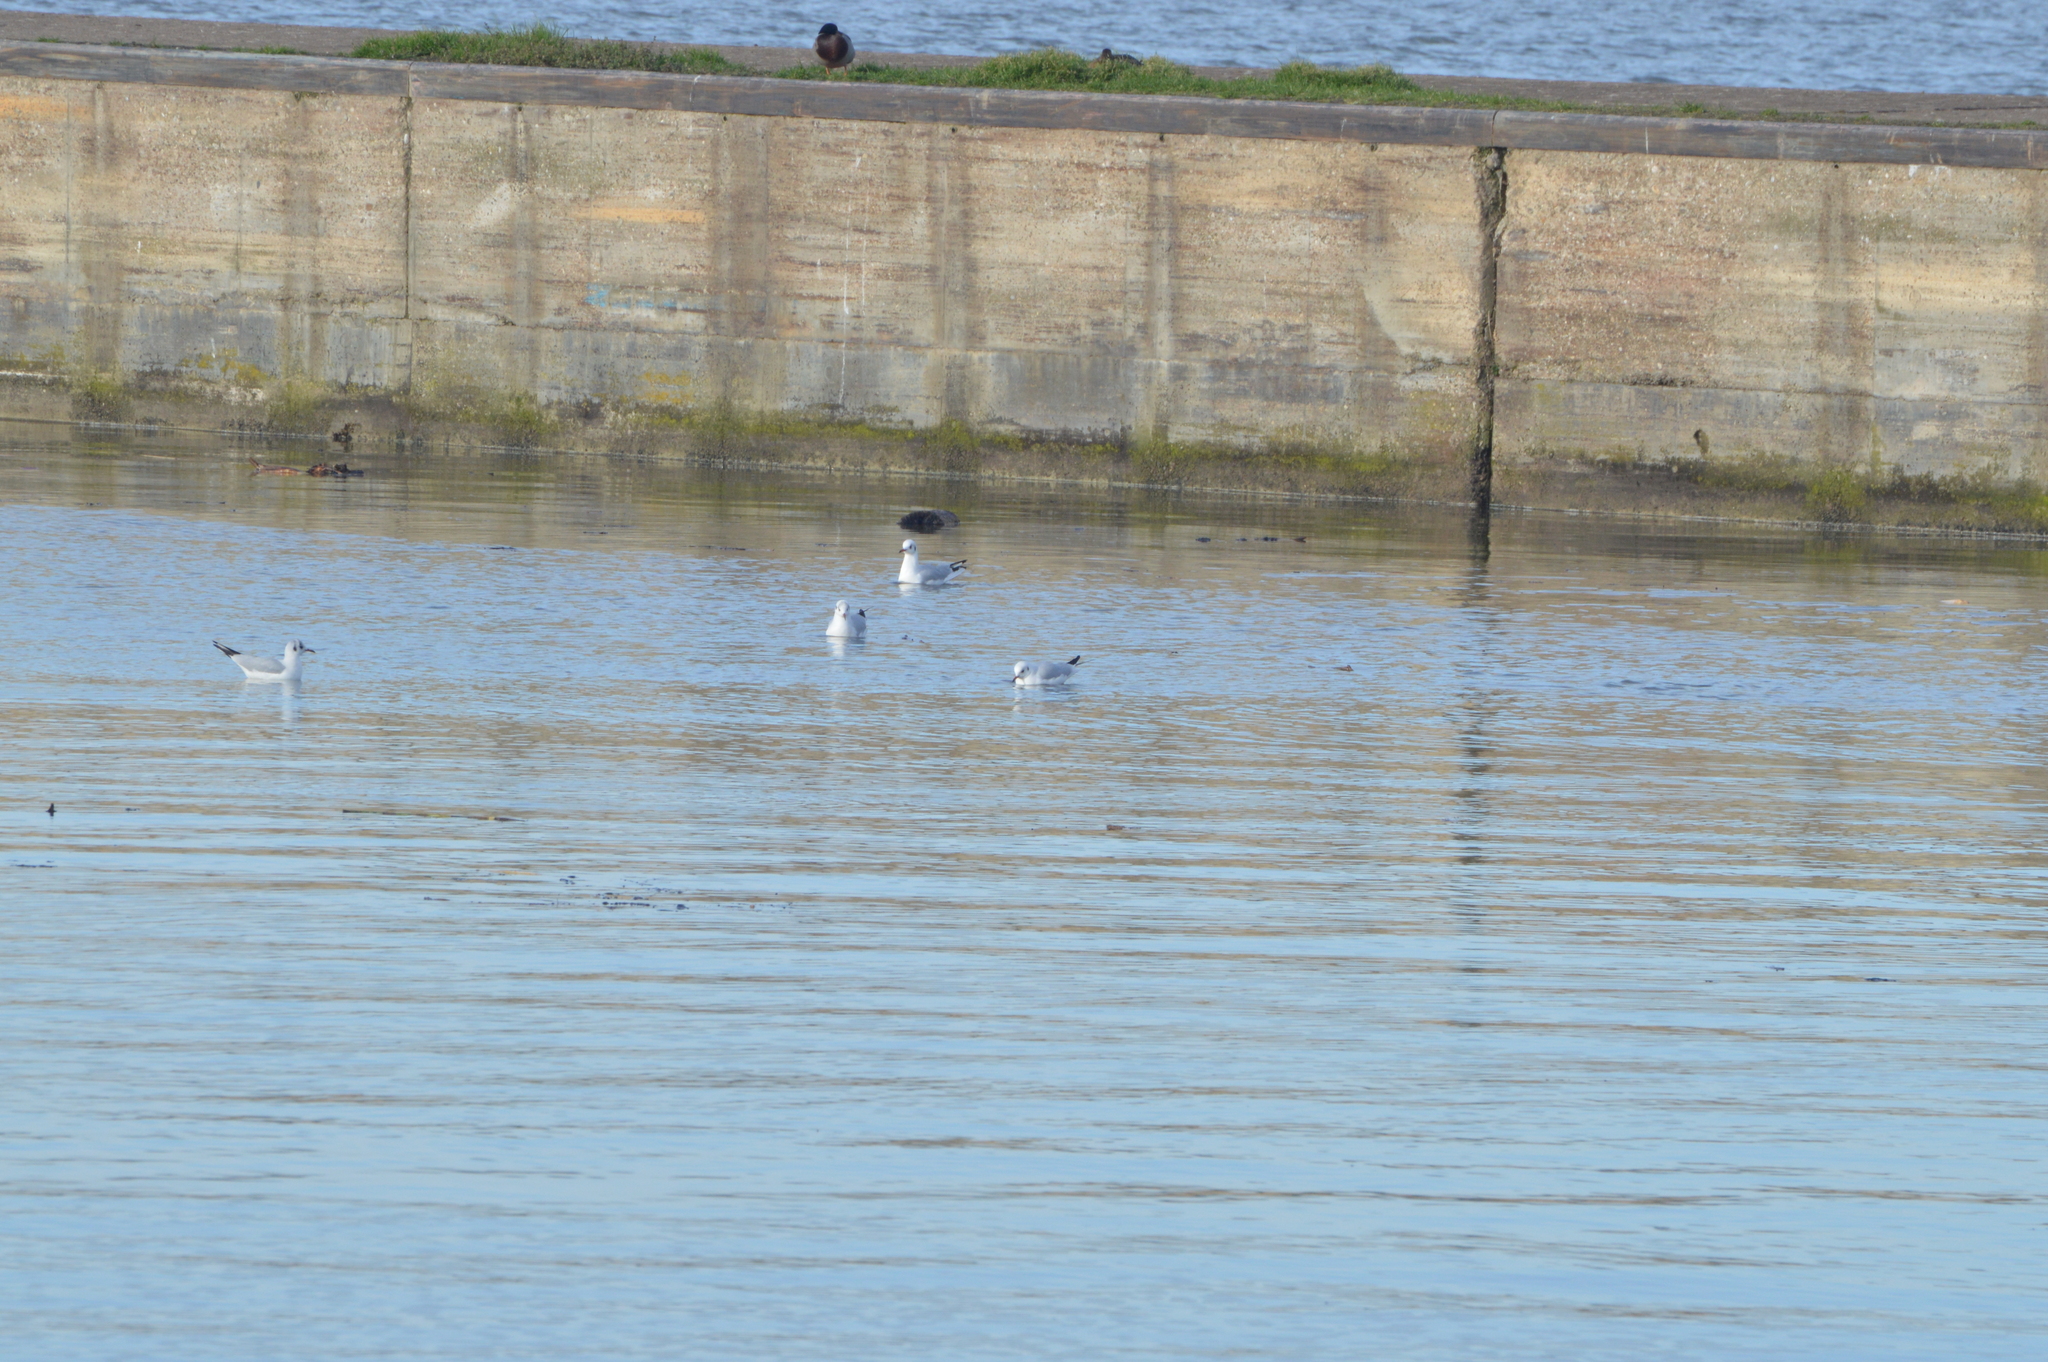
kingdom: Animalia
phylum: Chordata
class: Aves
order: Charadriiformes
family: Laridae
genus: Chroicocephalus
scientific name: Chroicocephalus ridibundus
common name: Black-headed gull
